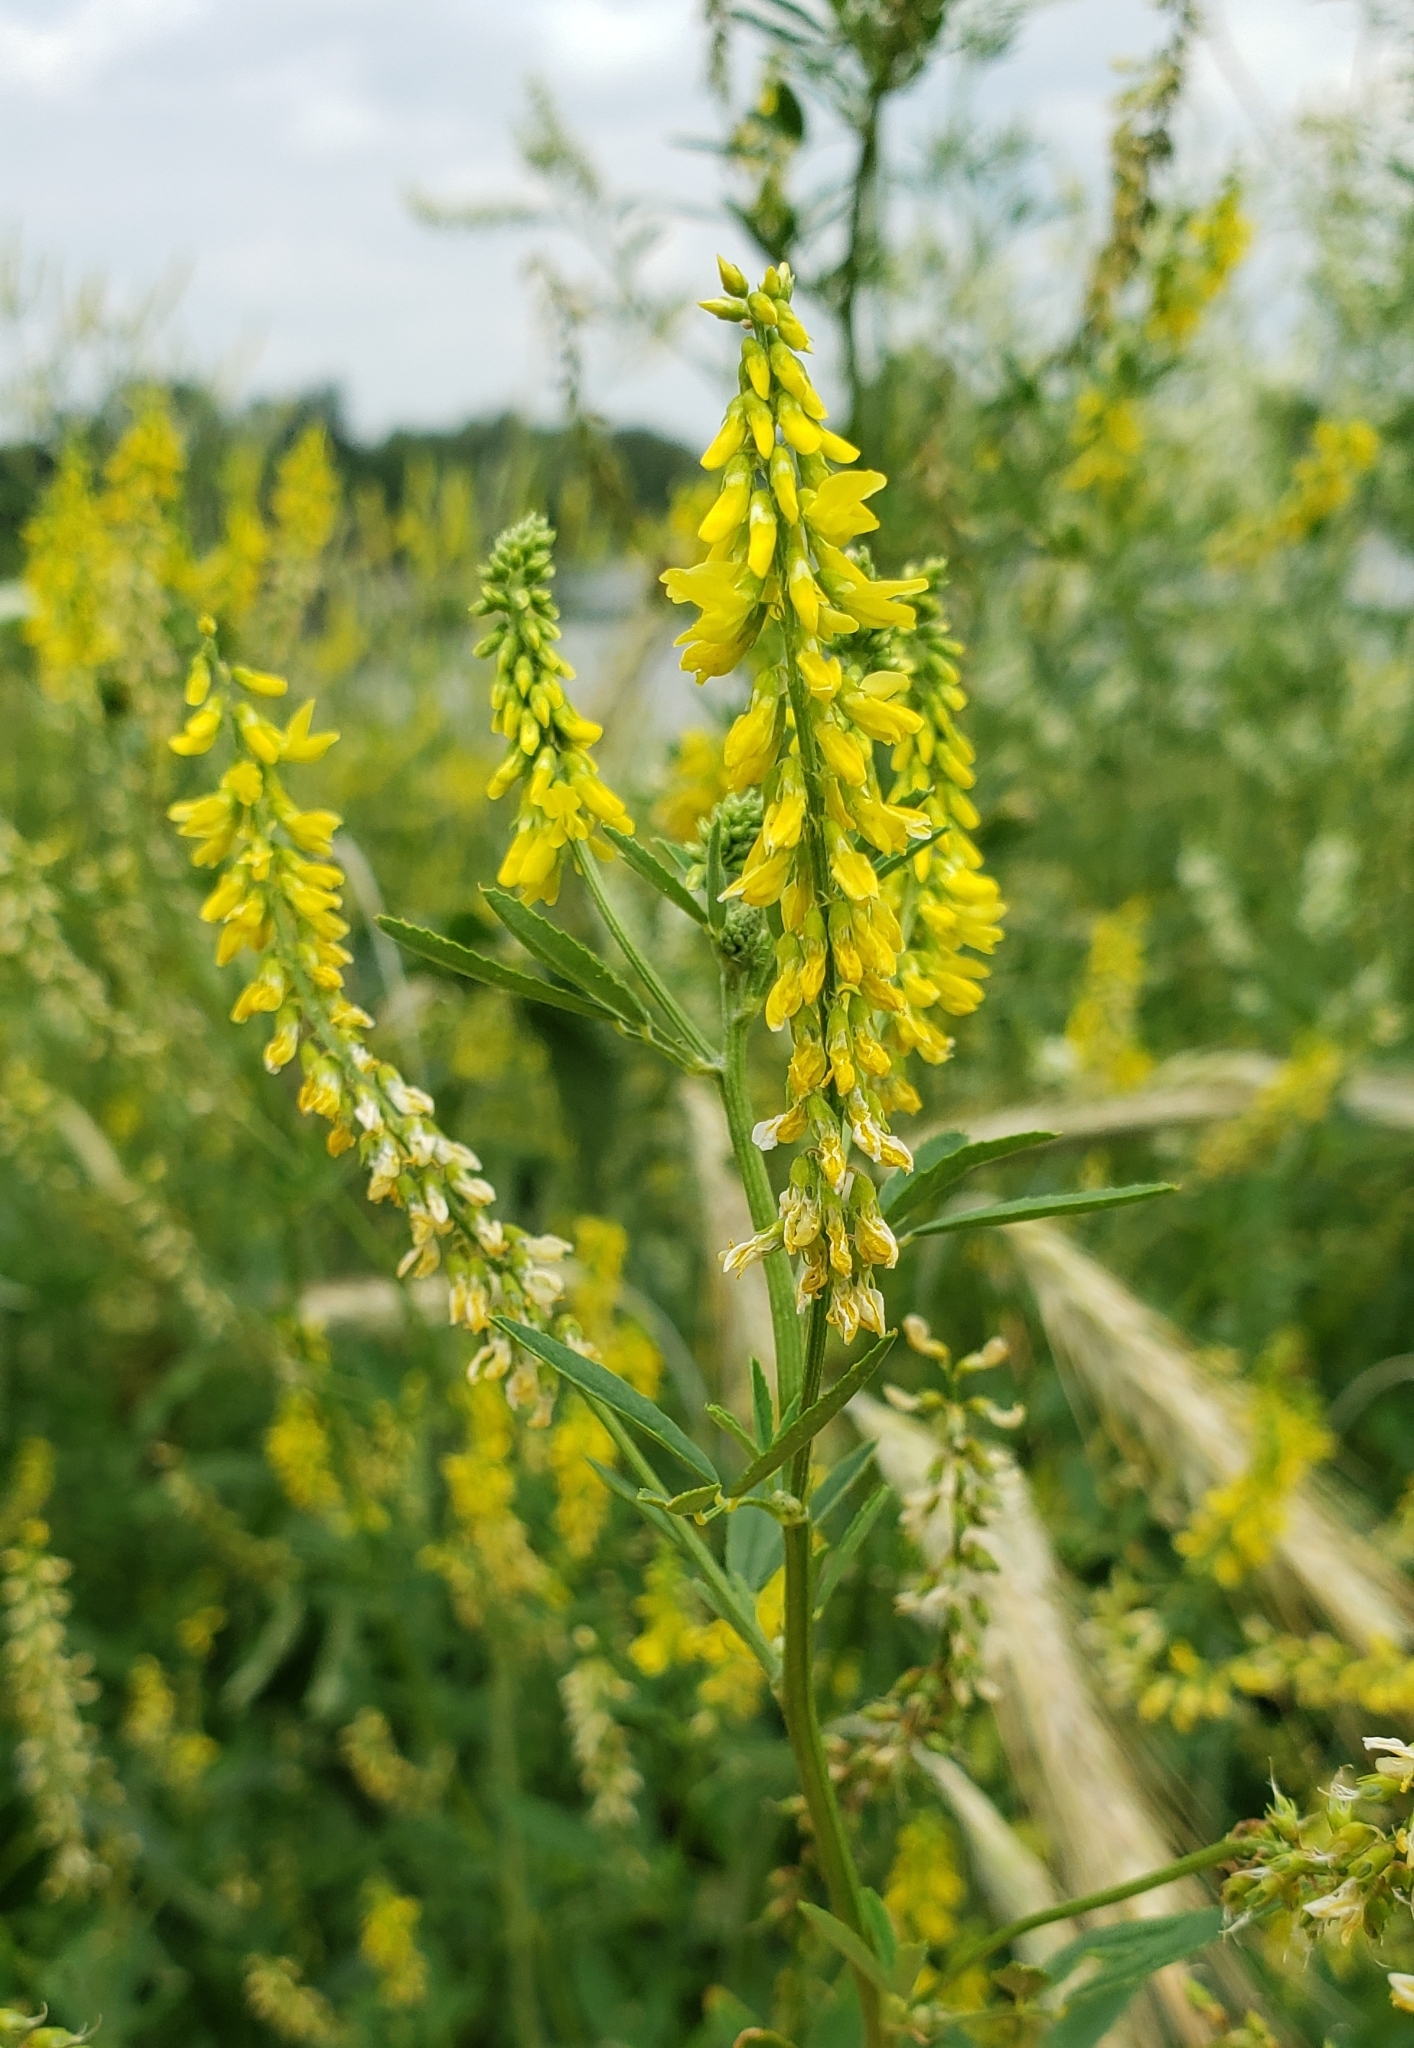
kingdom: Plantae
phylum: Tracheophyta
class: Magnoliopsida
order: Fabales
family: Fabaceae
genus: Melilotus
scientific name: Melilotus officinalis
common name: Sweetclover
